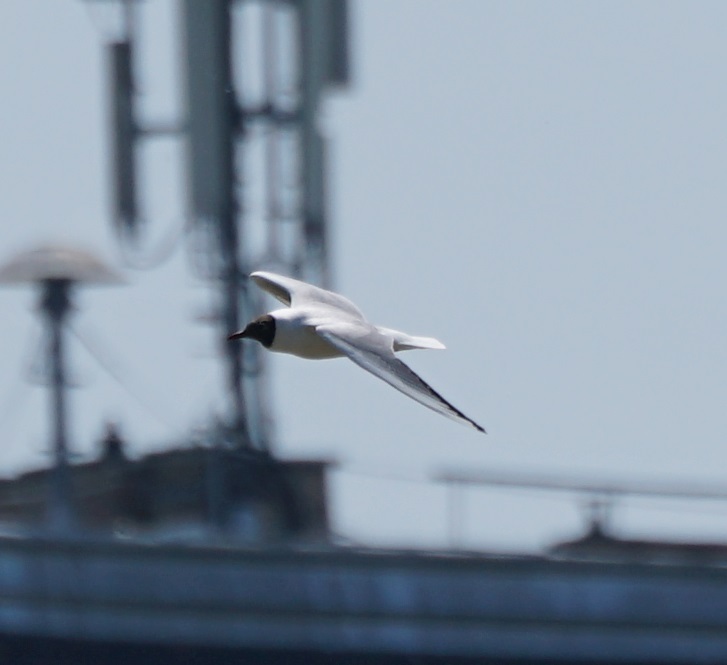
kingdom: Animalia
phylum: Chordata
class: Aves
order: Charadriiformes
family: Laridae
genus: Chroicocephalus
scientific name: Chroicocephalus ridibundus
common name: Black-headed gull
